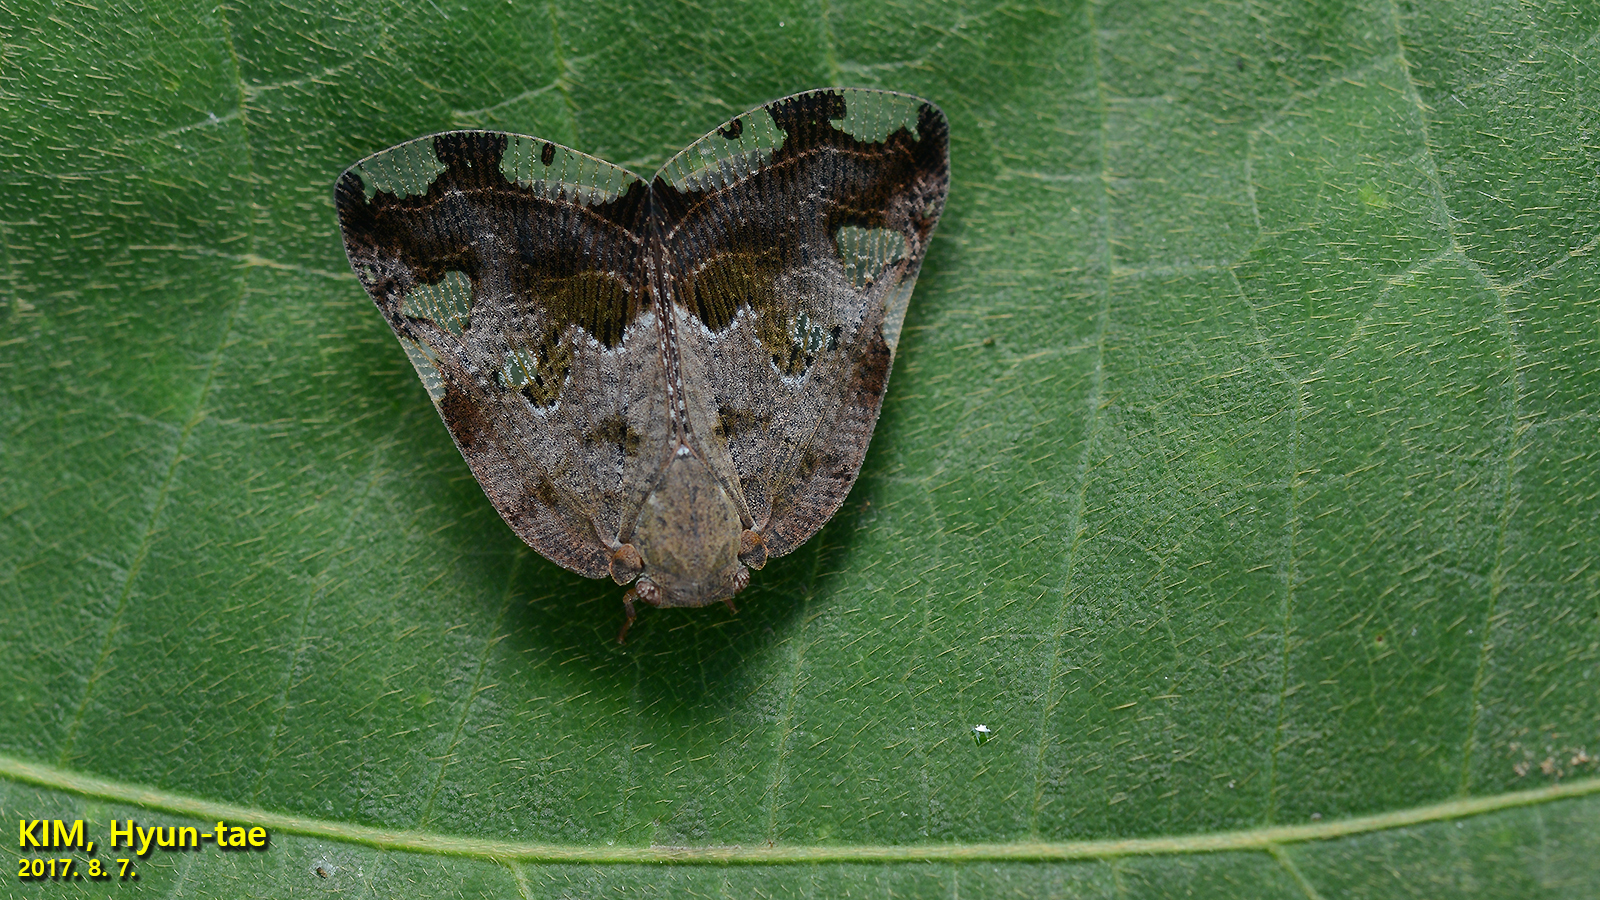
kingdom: Animalia
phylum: Arthropoda
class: Insecta
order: Hemiptera
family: Ricaniidae
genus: Ricania
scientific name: Ricania speculum
